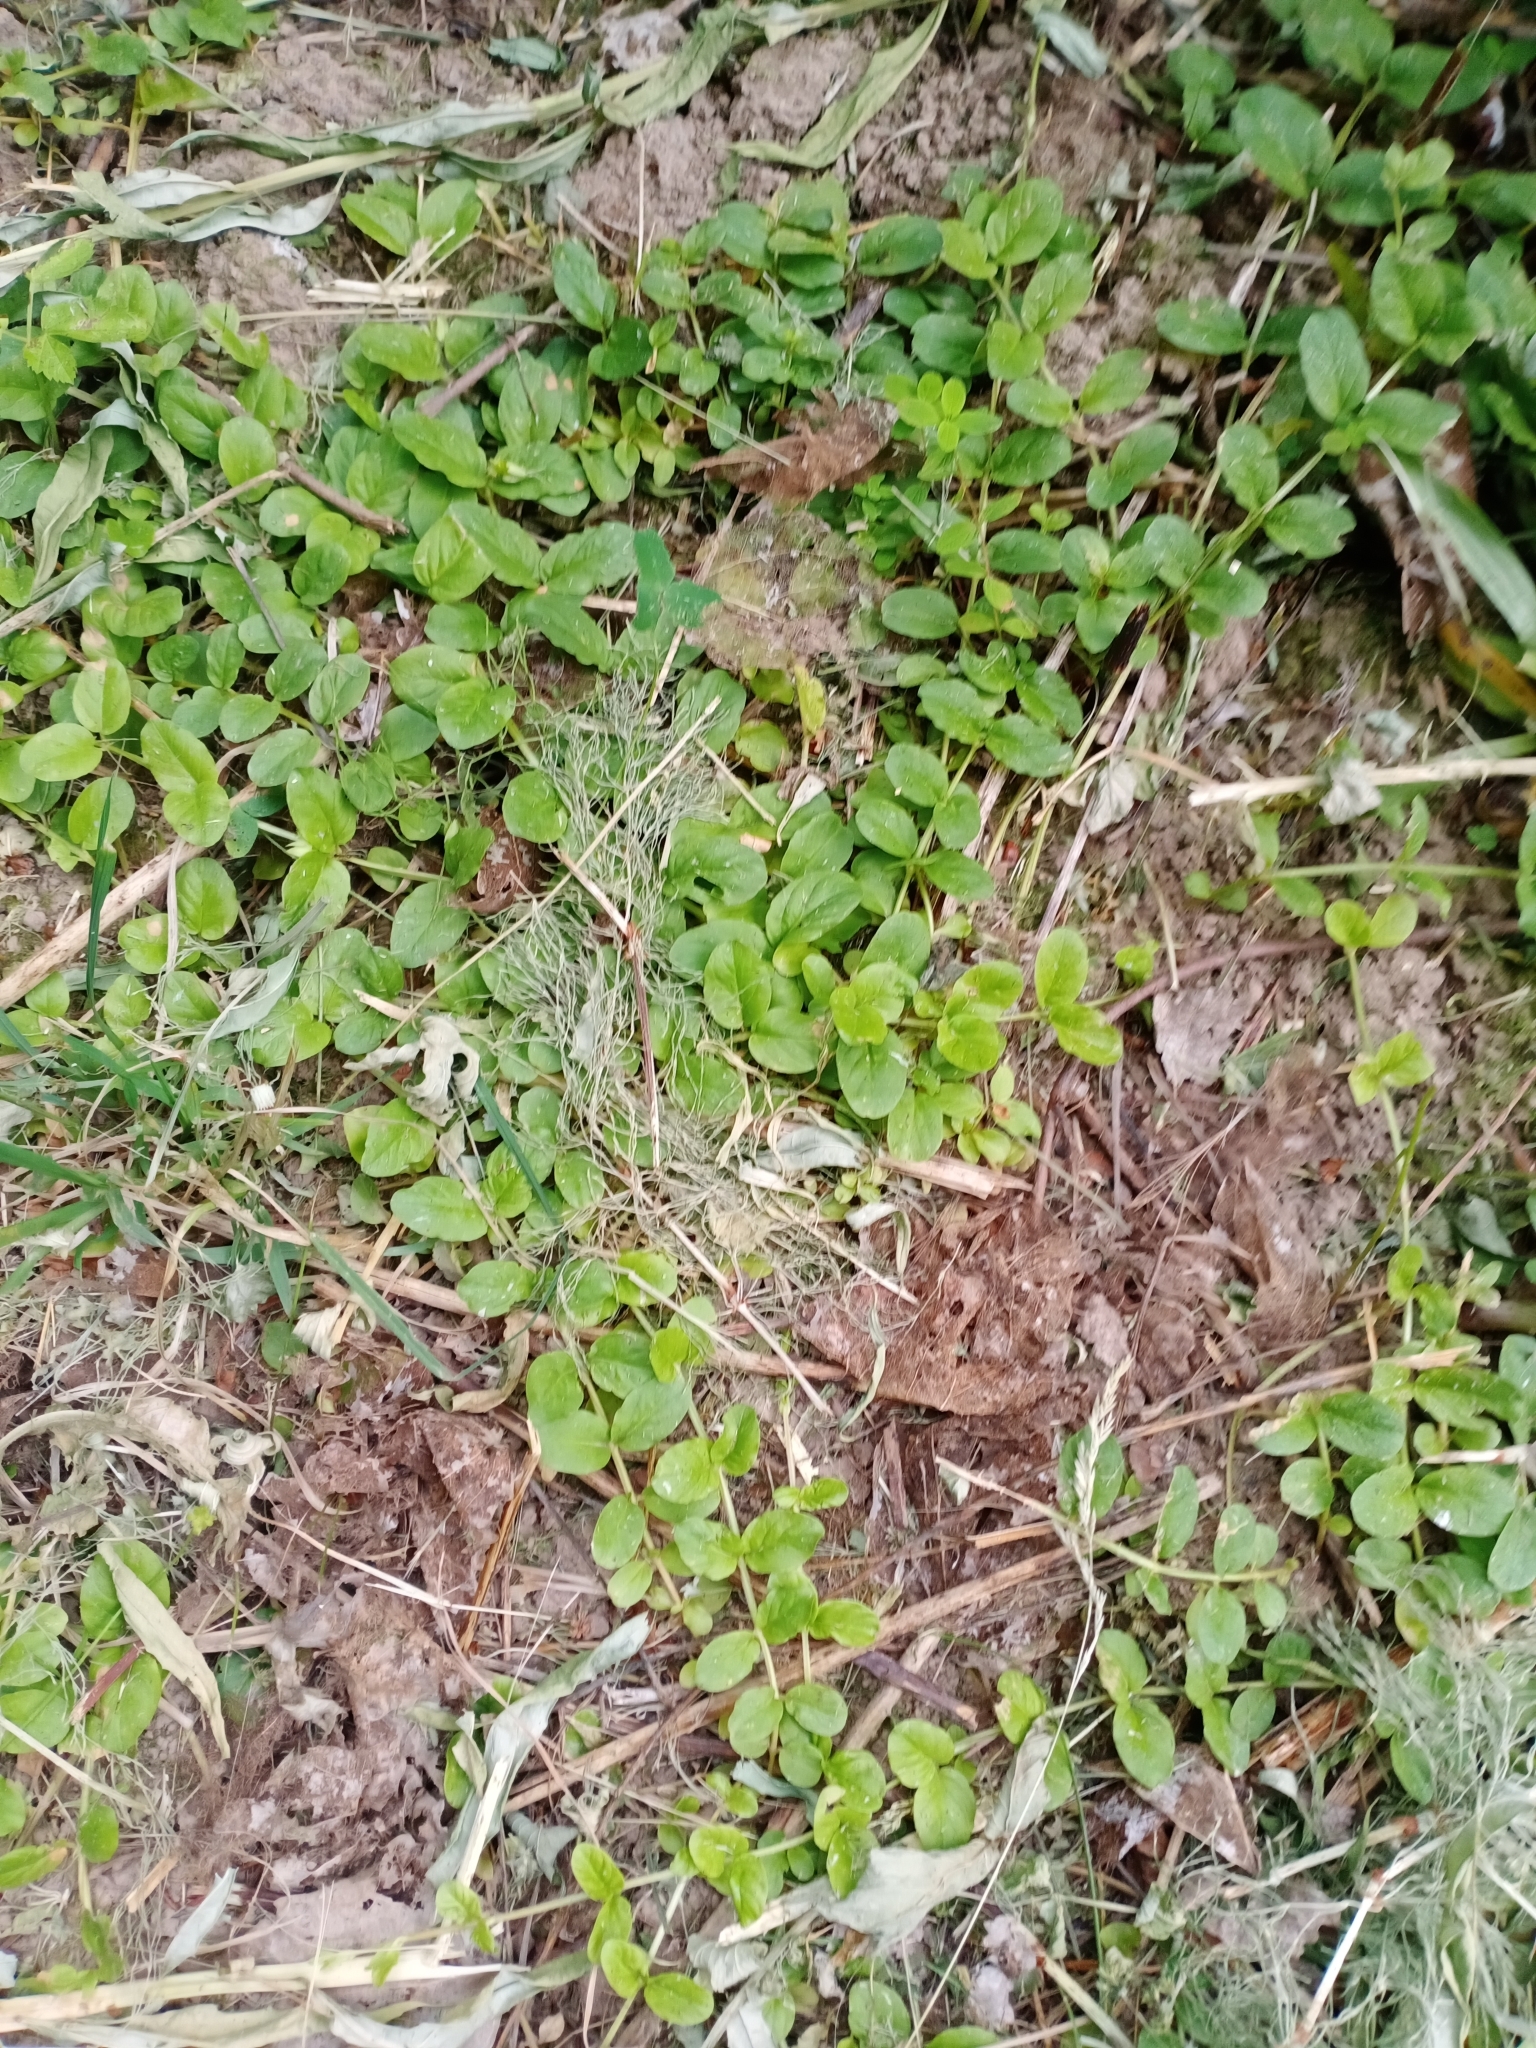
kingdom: Plantae
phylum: Tracheophyta
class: Magnoliopsida
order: Ericales
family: Primulaceae
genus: Lysimachia
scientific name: Lysimachia nummularia
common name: Moneywort
